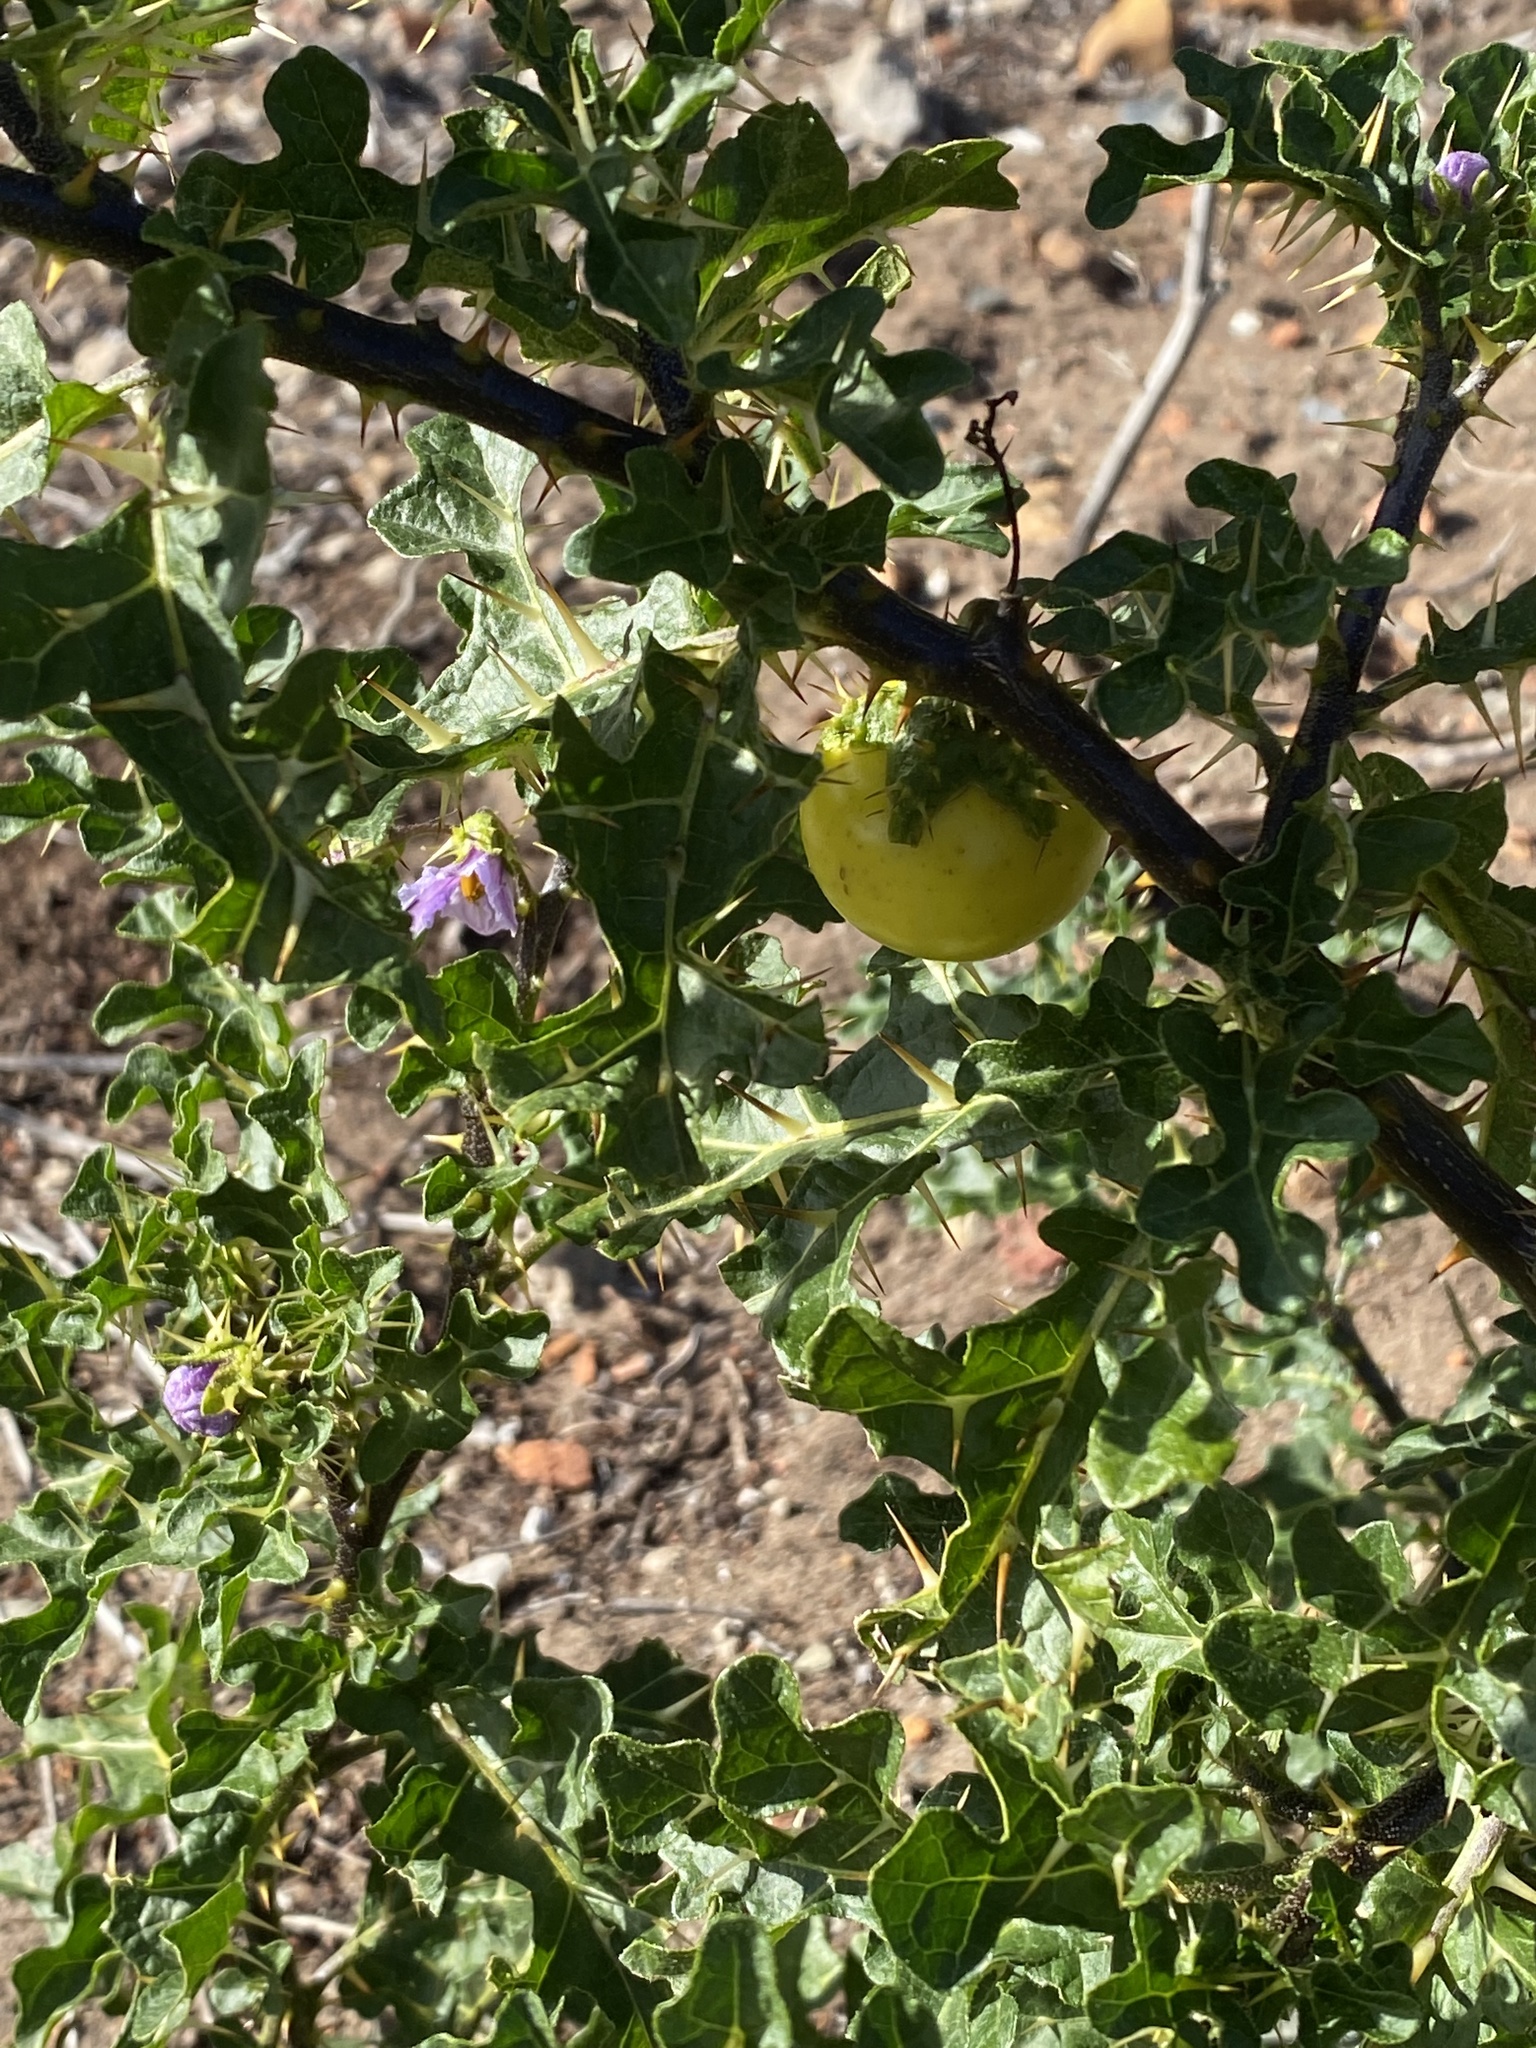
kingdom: Plantae
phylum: Tracheophyta
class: Magnoliopsida
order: Solanales
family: Solanaceae
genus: Solanum
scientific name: Solanum linnaeanum
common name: Nightshade
